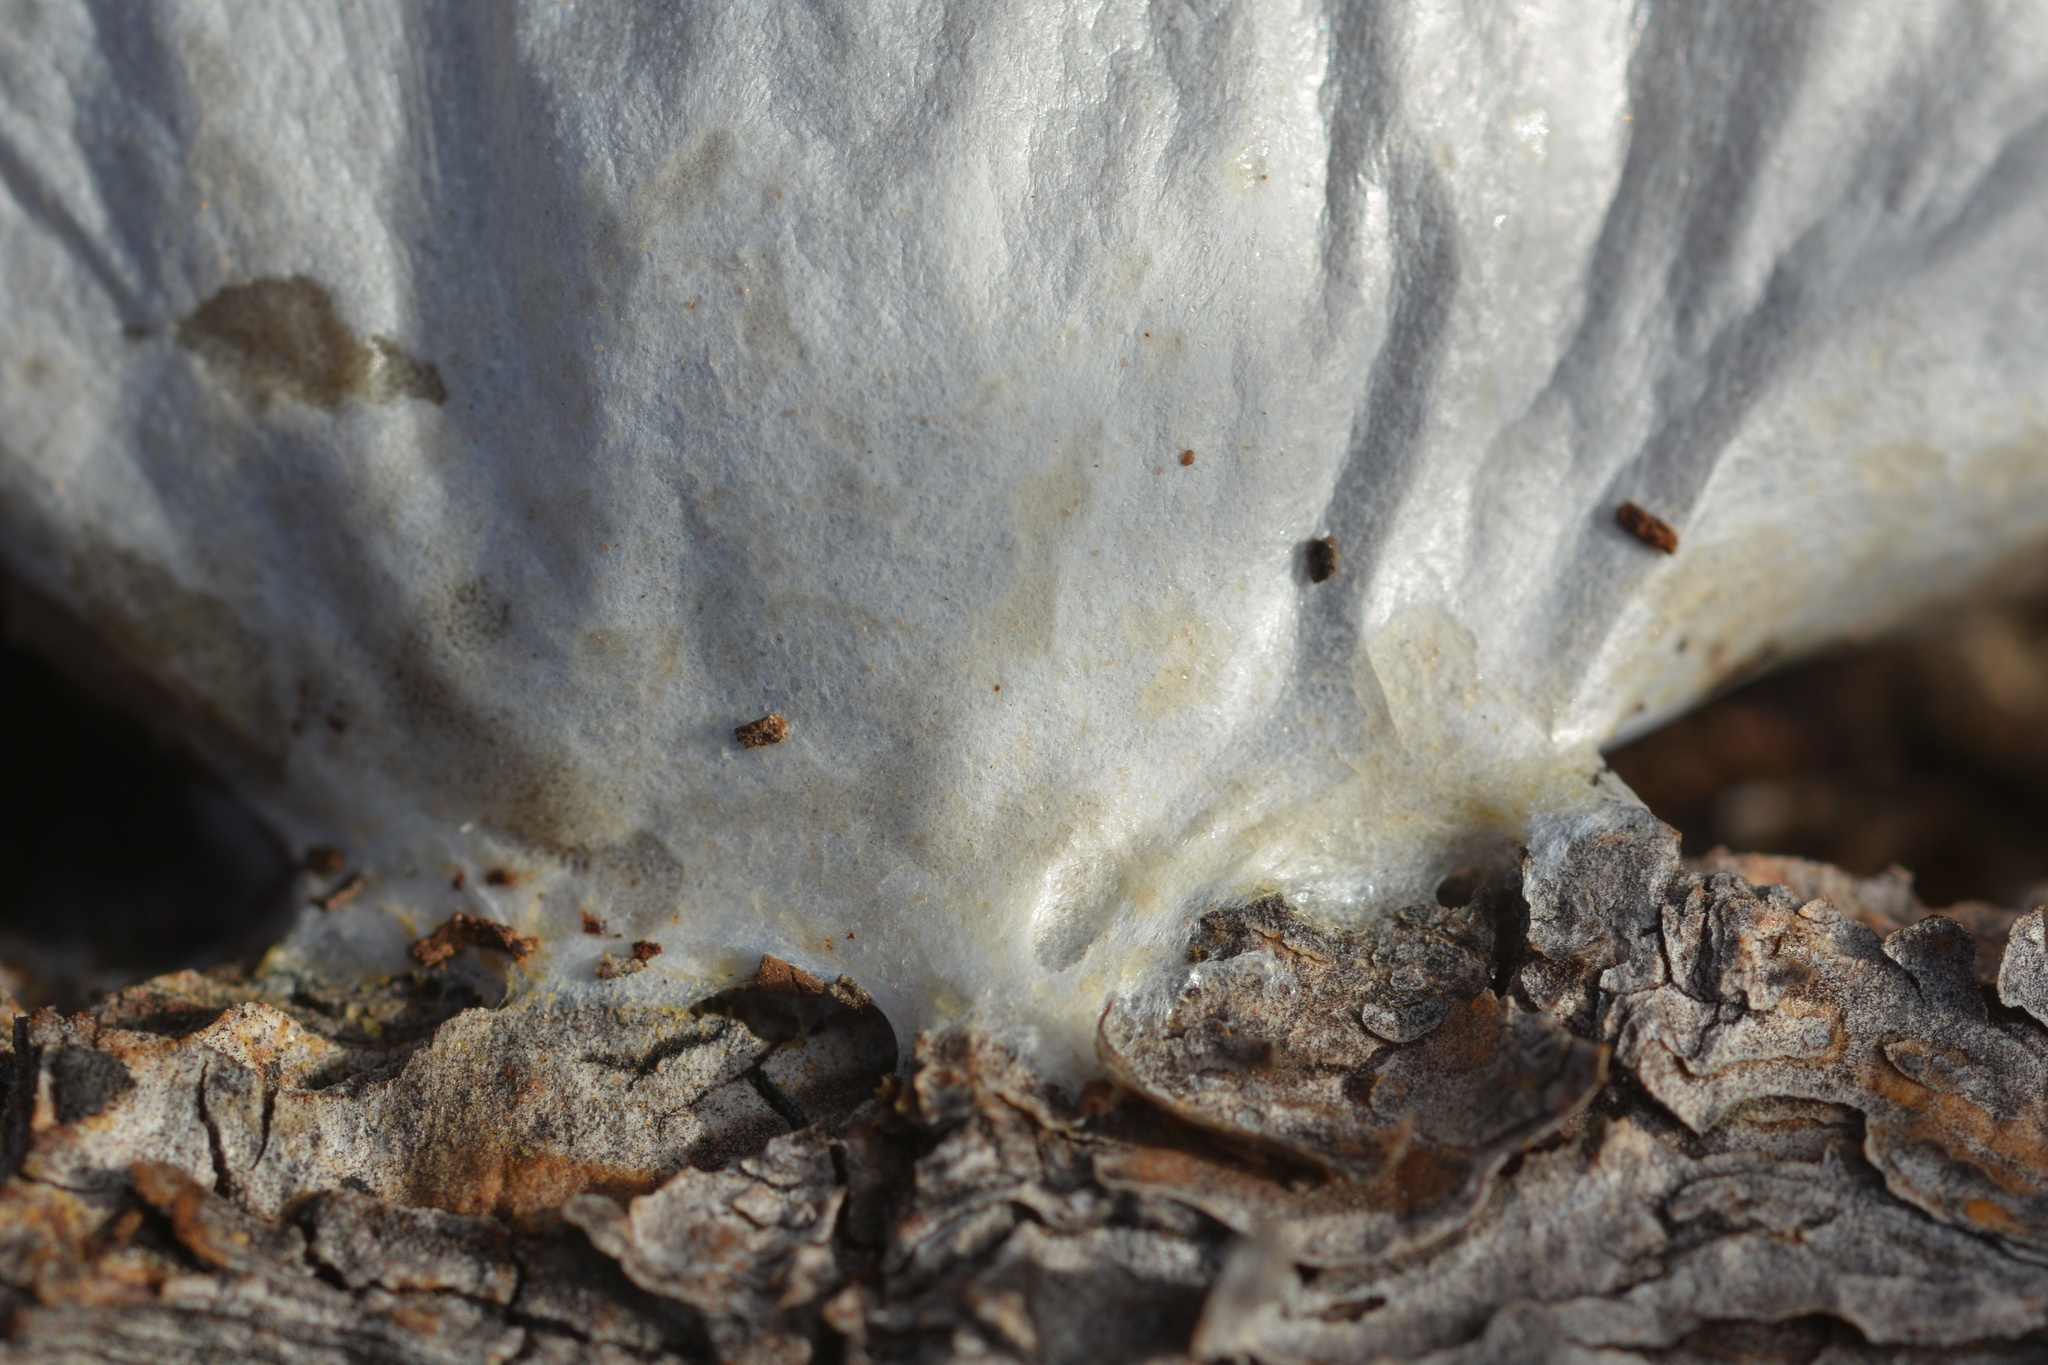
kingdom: Protozoa
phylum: Mycetozoa
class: Myxomycetes
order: Cribrariales
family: Tubiferaceae
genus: Reticularia
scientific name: Reticularia lycoperdon
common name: False puffball
